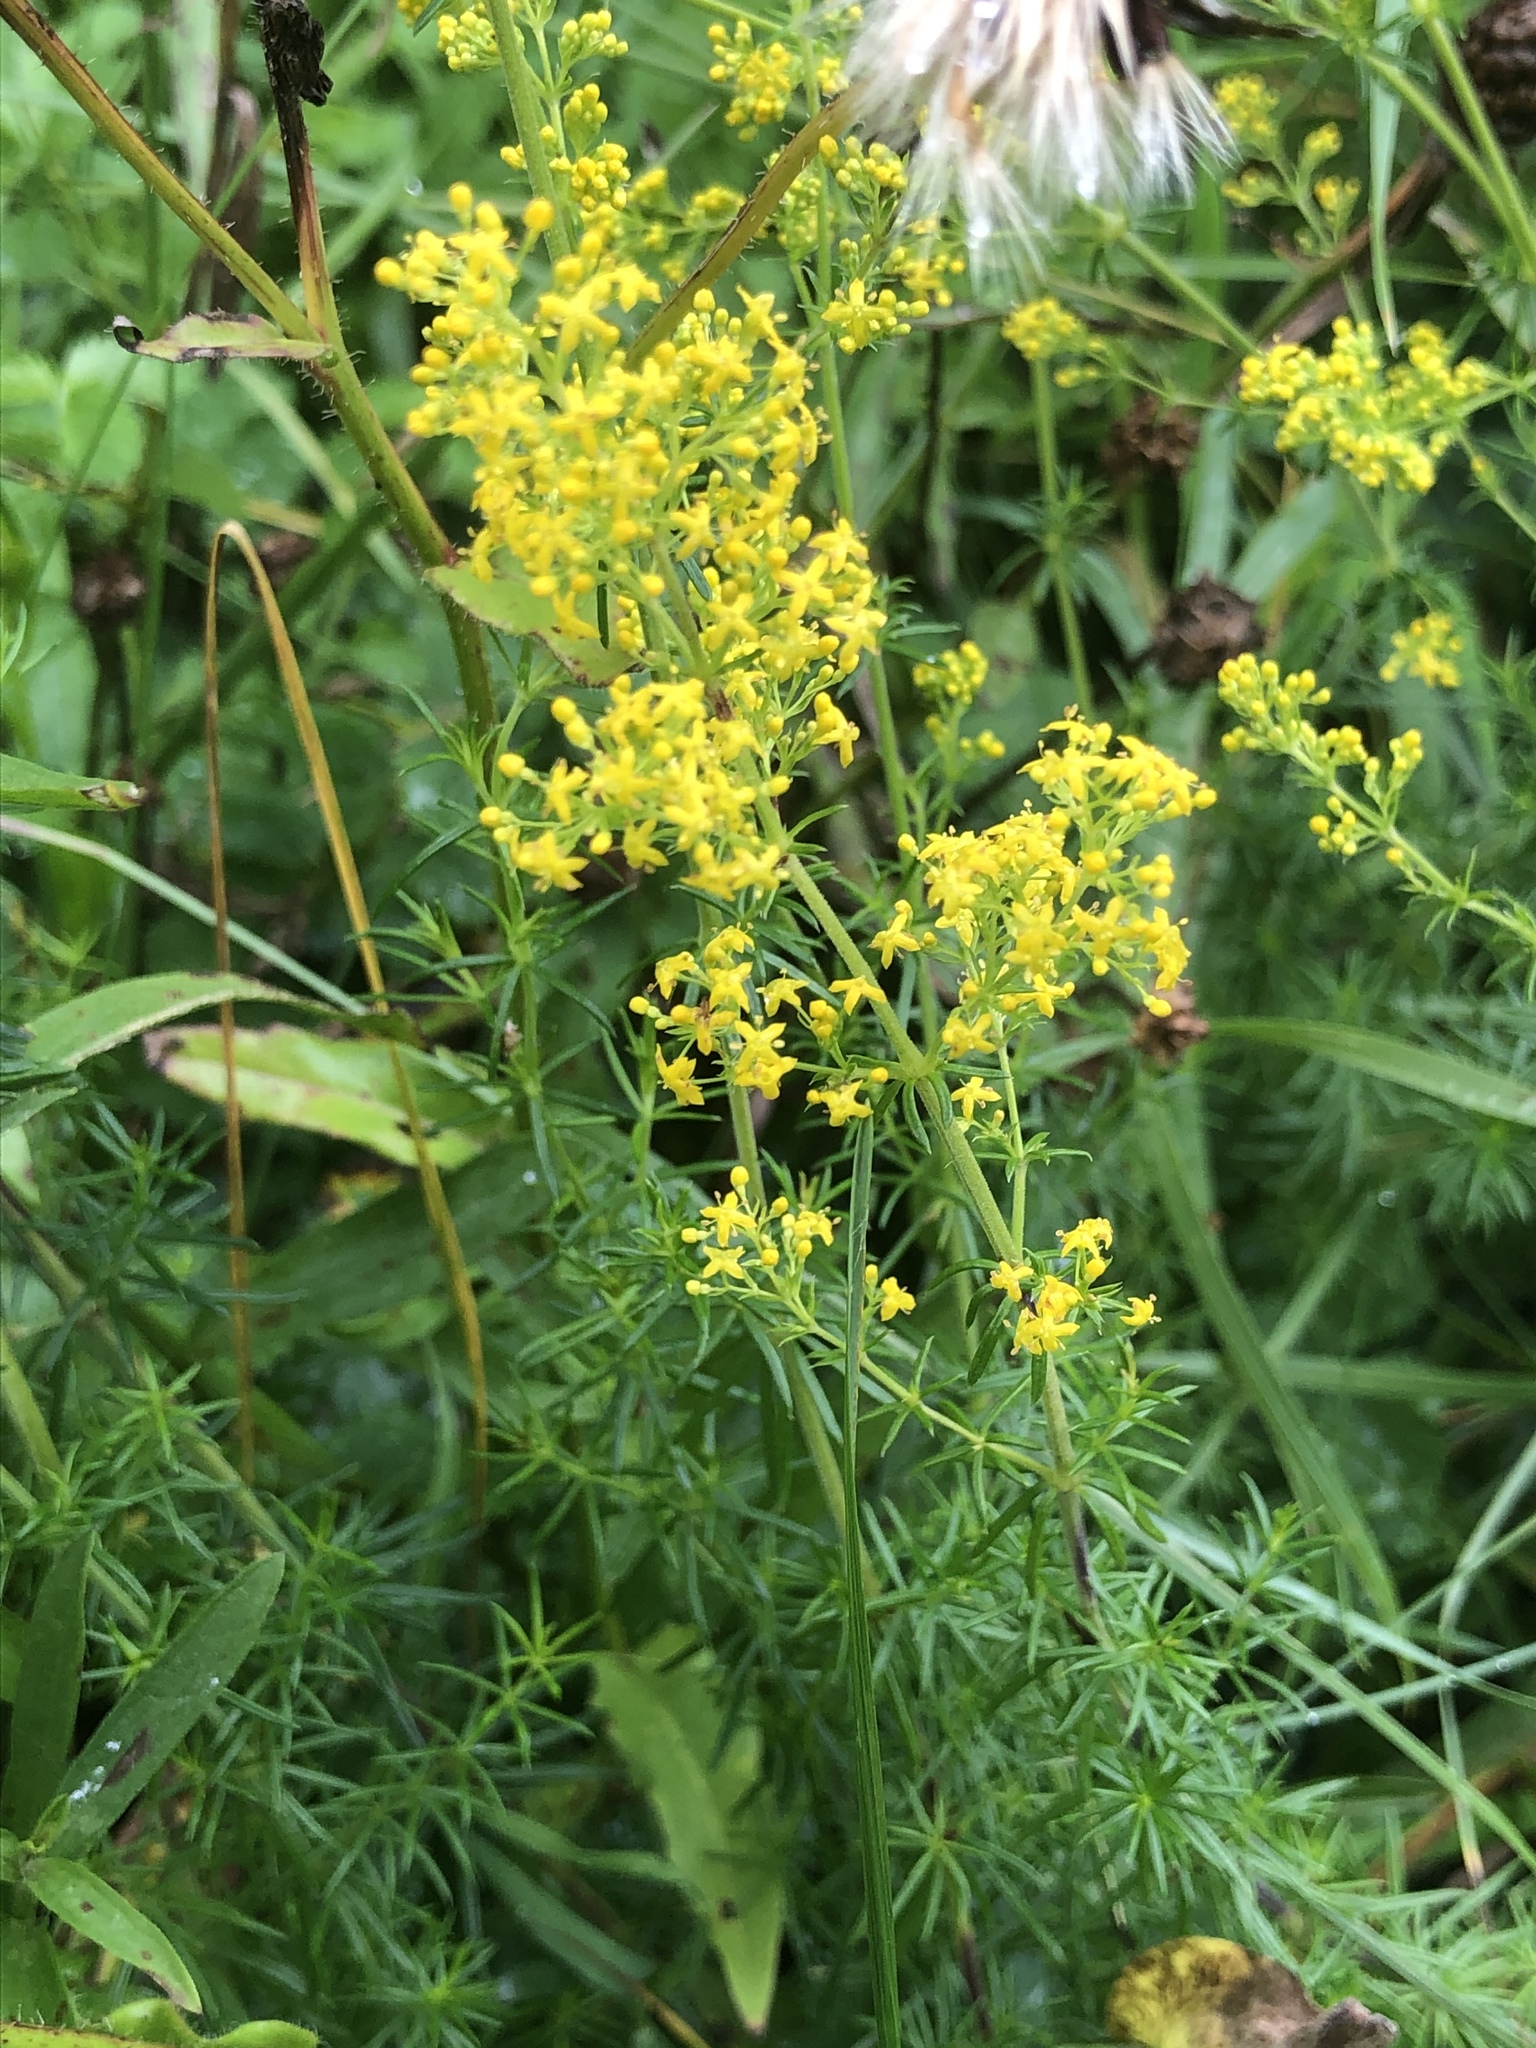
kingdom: Plantae
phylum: Tracheophyta
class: Magnoliopsida
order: Gentianales
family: Rubiaceae
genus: Galium
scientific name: Galium verum
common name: Lady's bedstraw
